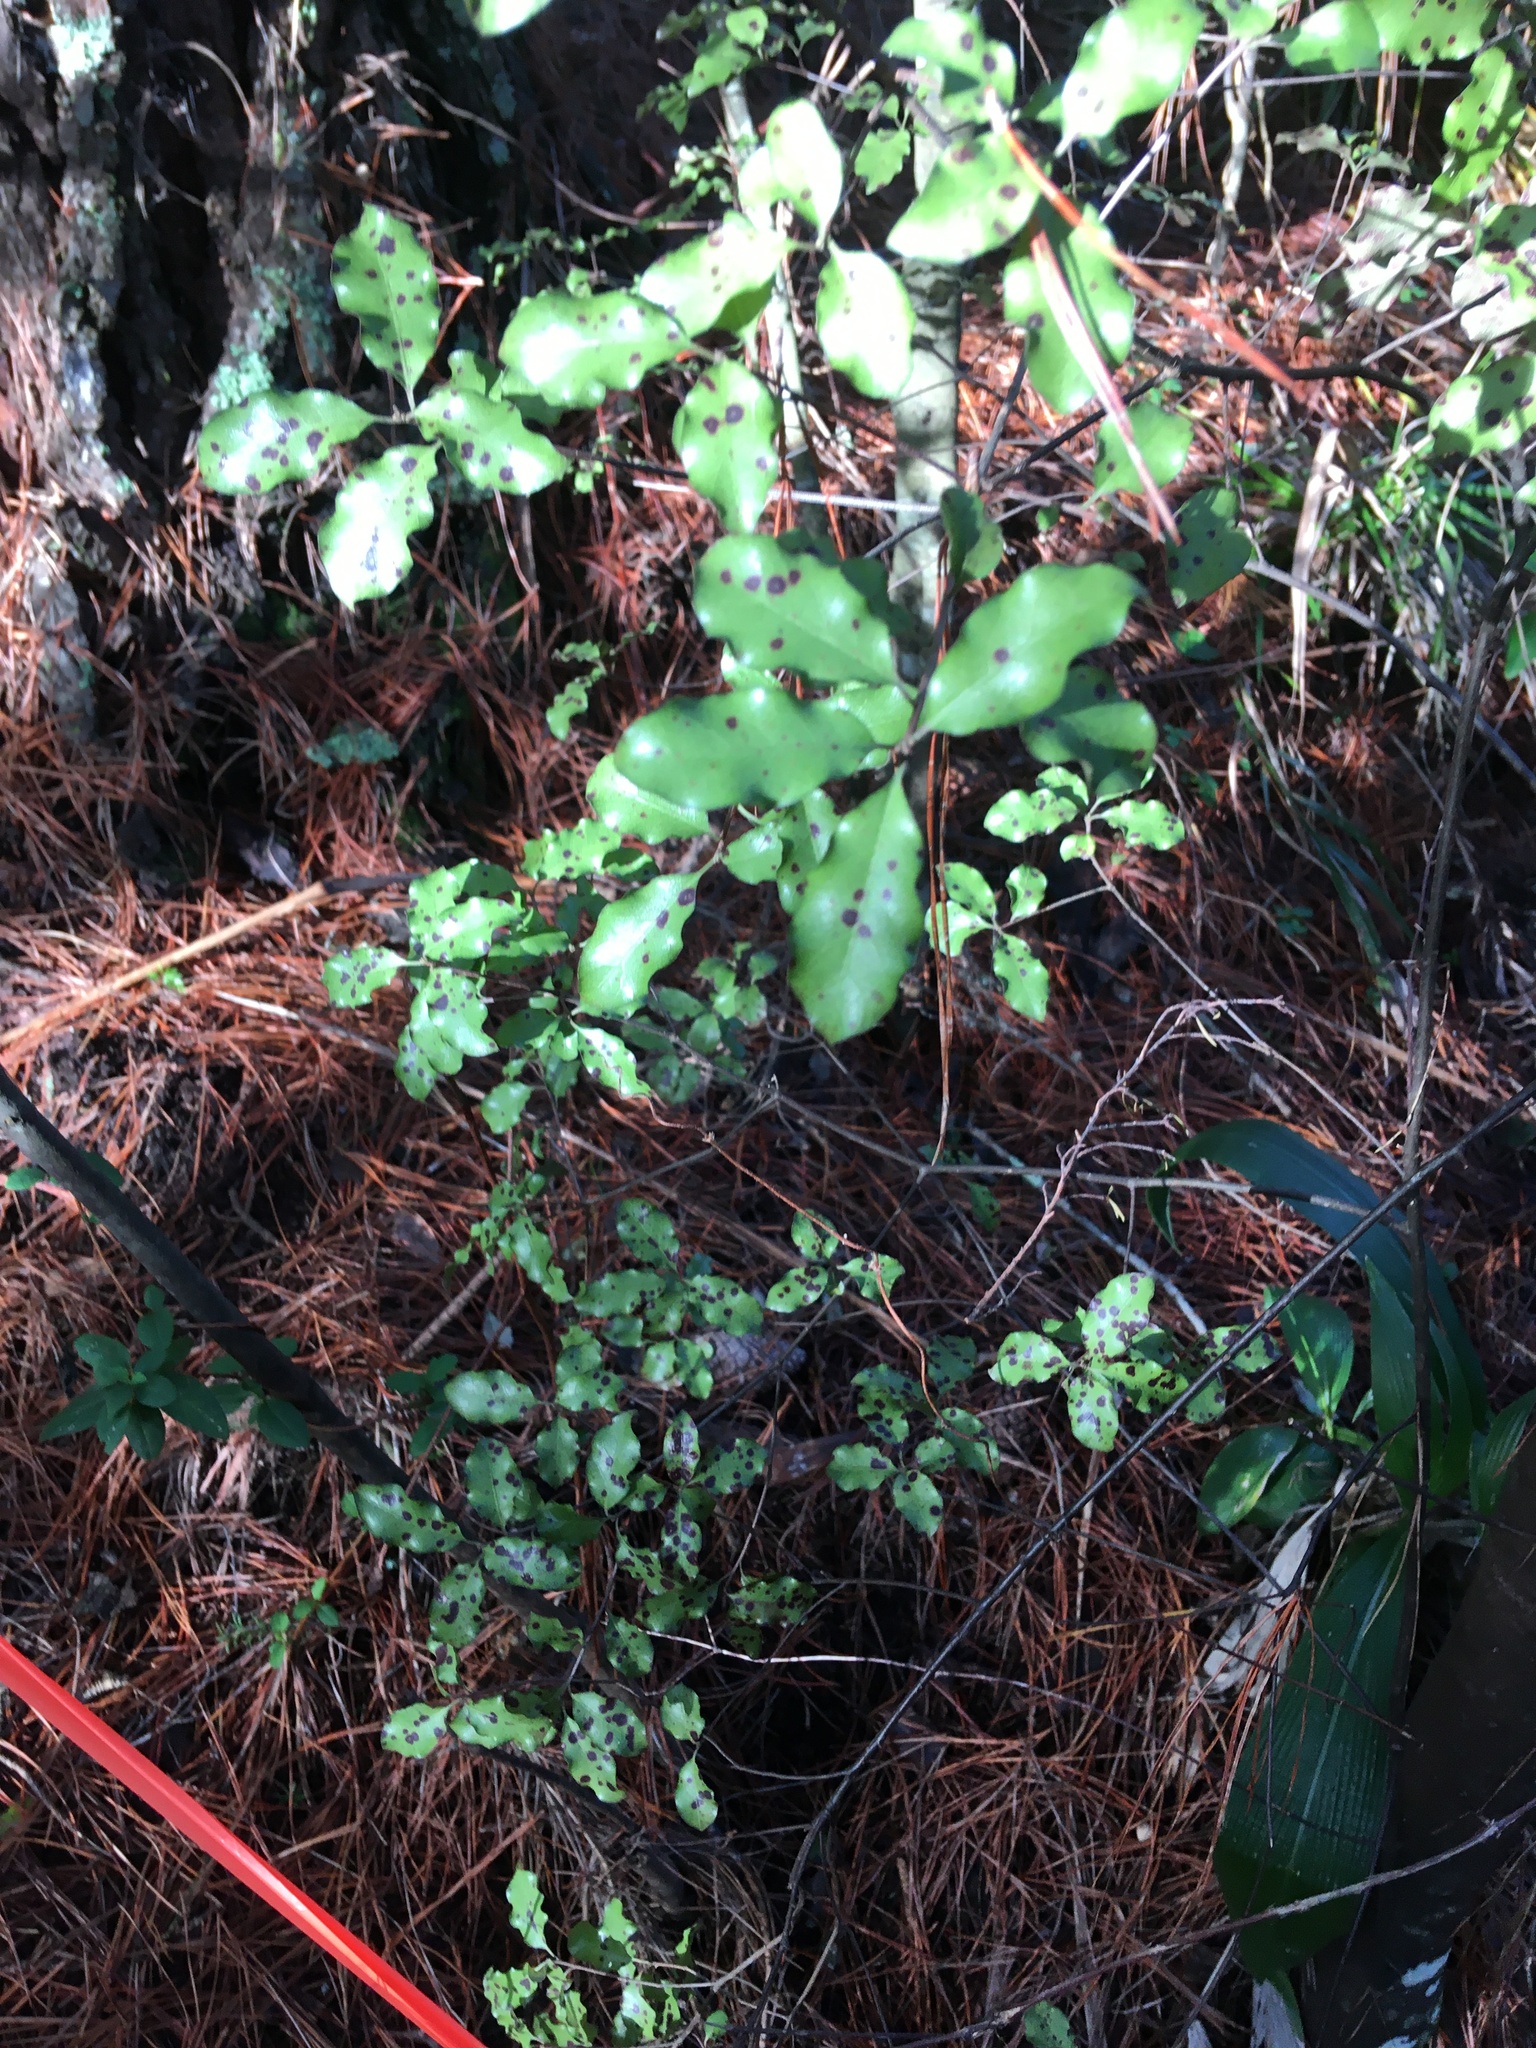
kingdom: Plantae
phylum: Tracheophyta
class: Magnoliopsida
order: Apiales
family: Pittosporaceae
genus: Pittosporum
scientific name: Pittosporum tenuifolium
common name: Kohuhu
